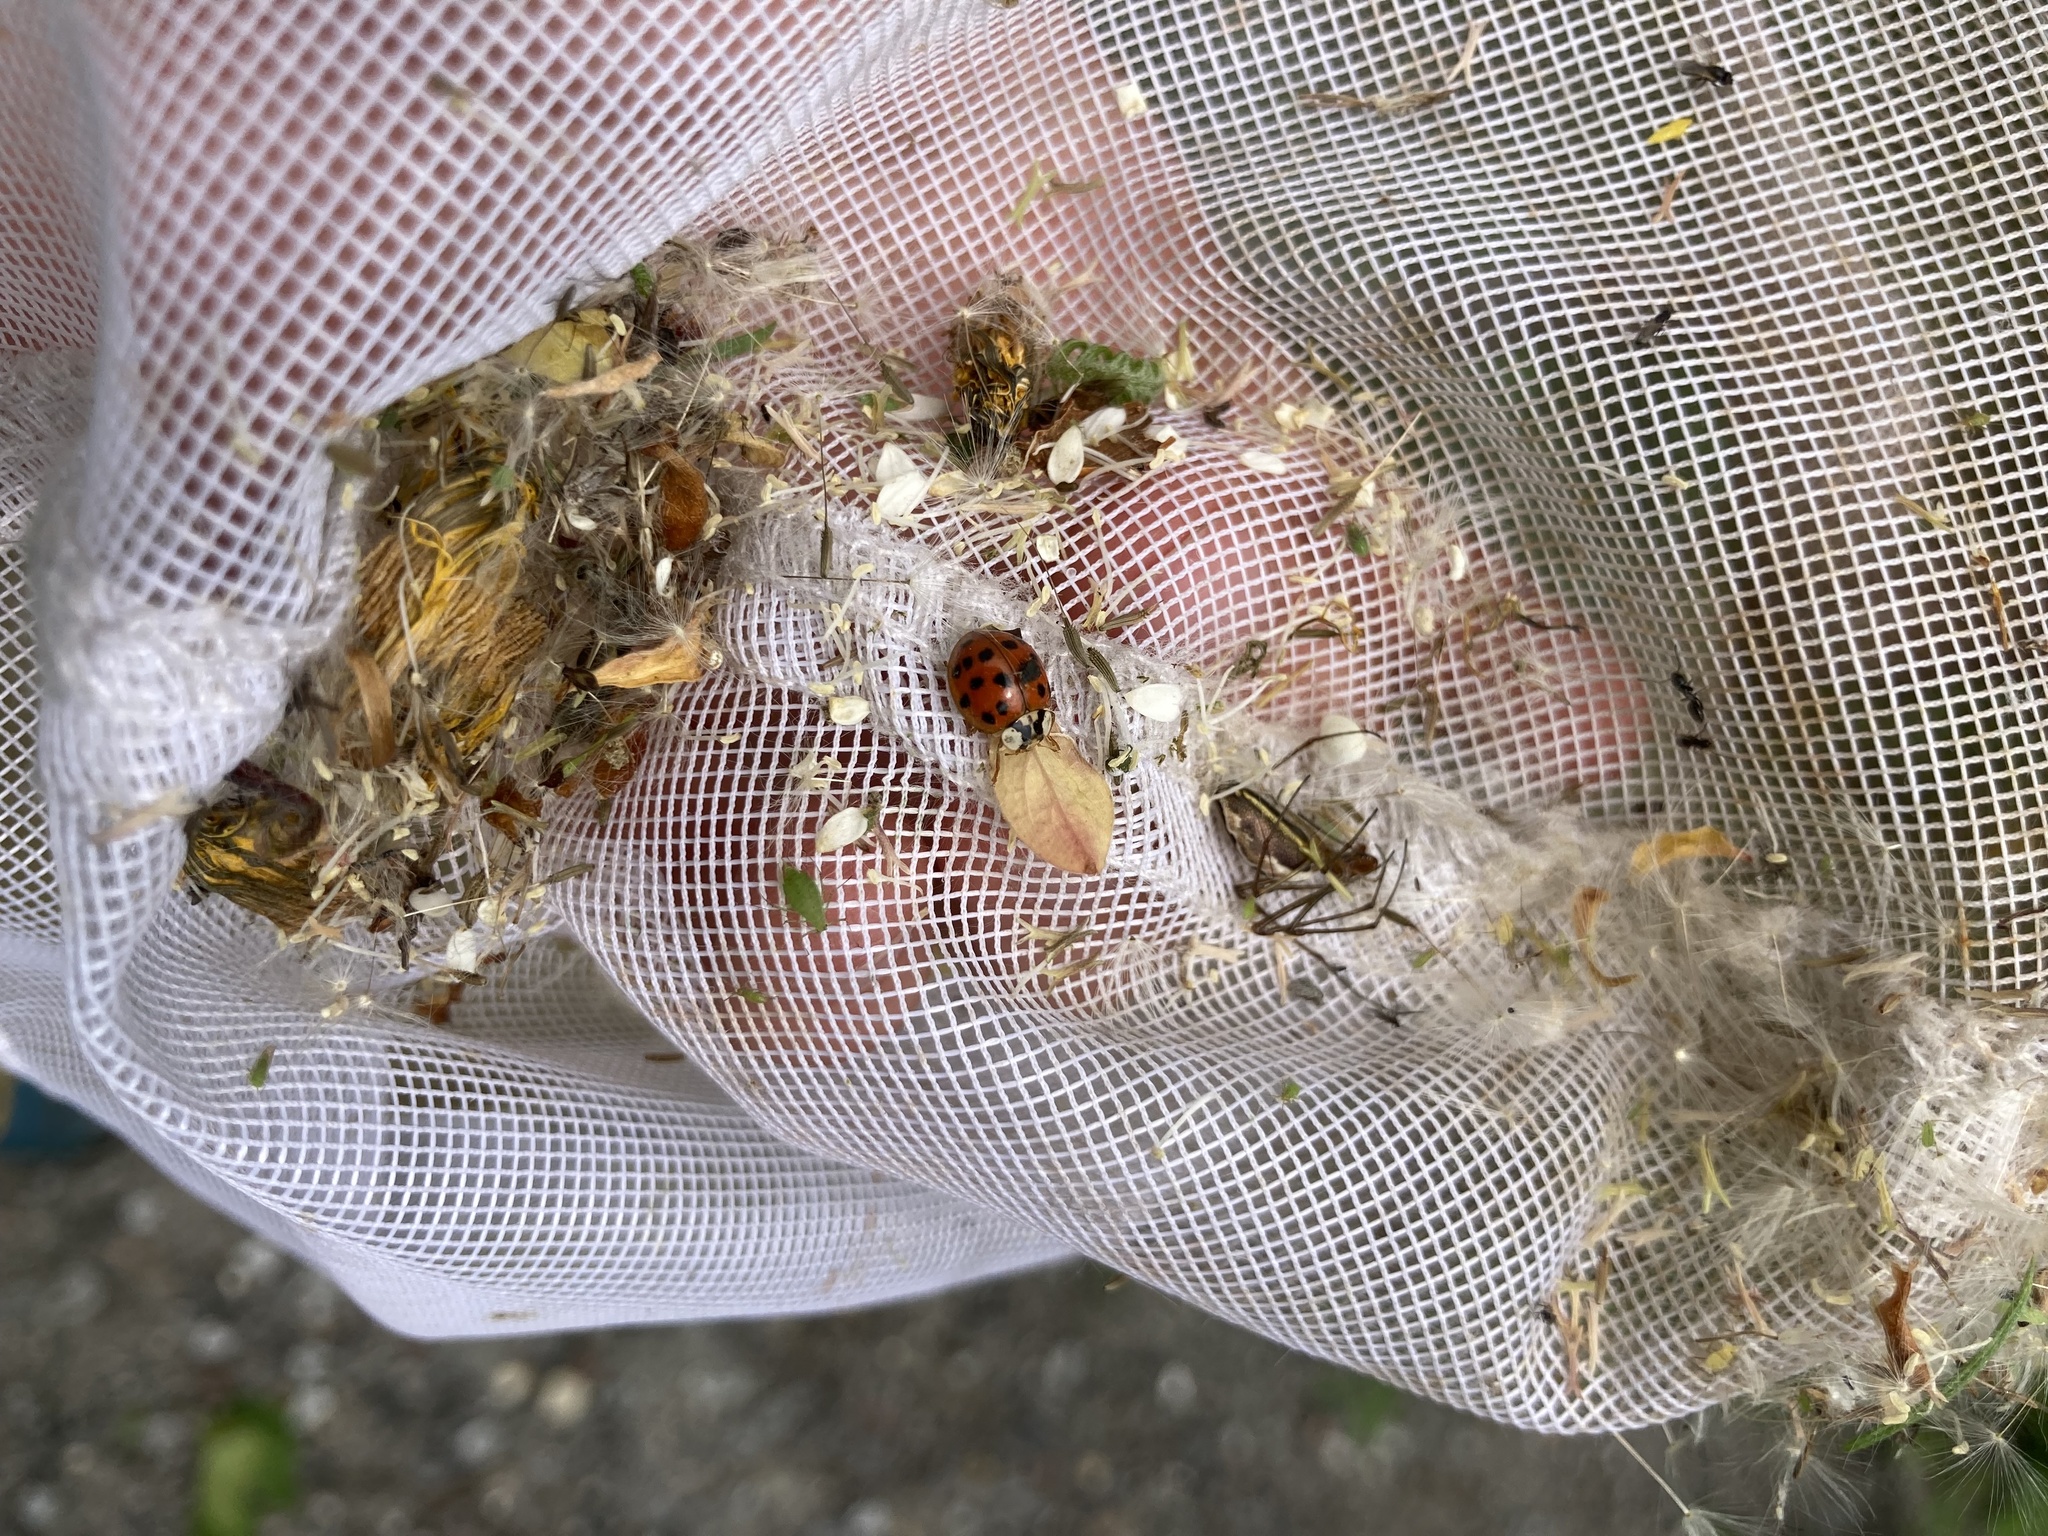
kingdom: Animalia
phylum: Arthropoda
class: Insecta
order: Coleoptera
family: Coccinellidae
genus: Harmonia
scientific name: Harmonia axyridis
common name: Harlequin ladybird
